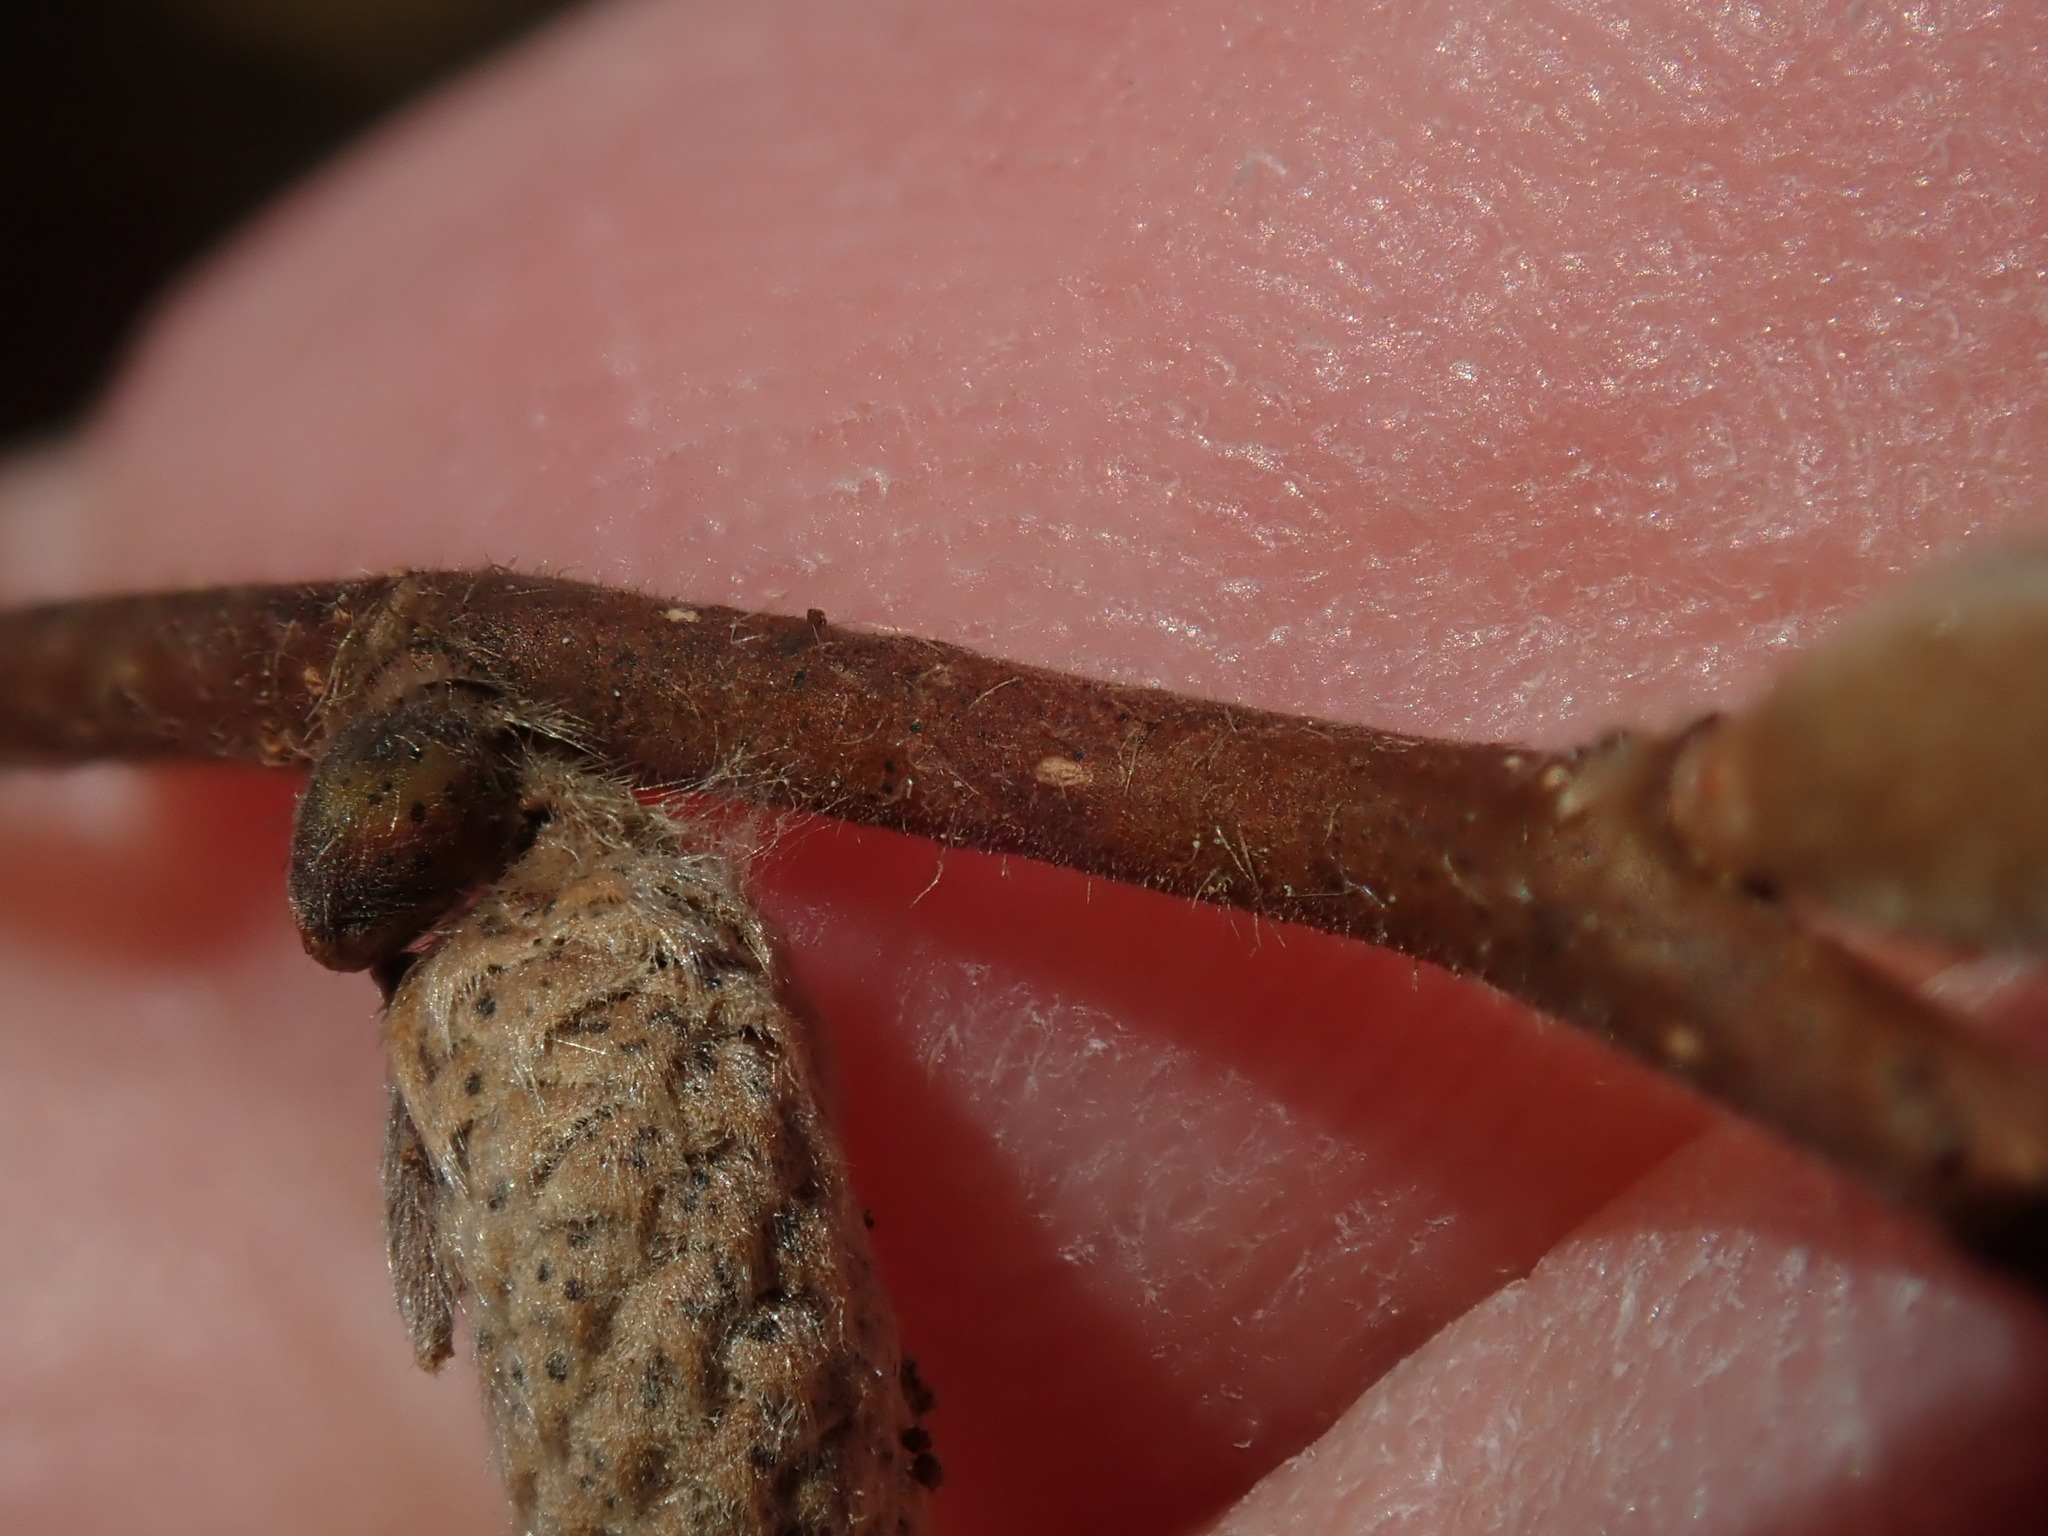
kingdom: Plantae
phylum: Tracheophyta
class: Magnoliopsida
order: Fagales
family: Betulaceae
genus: Corylus
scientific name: Corylus cornuta
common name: Beaked hazel
